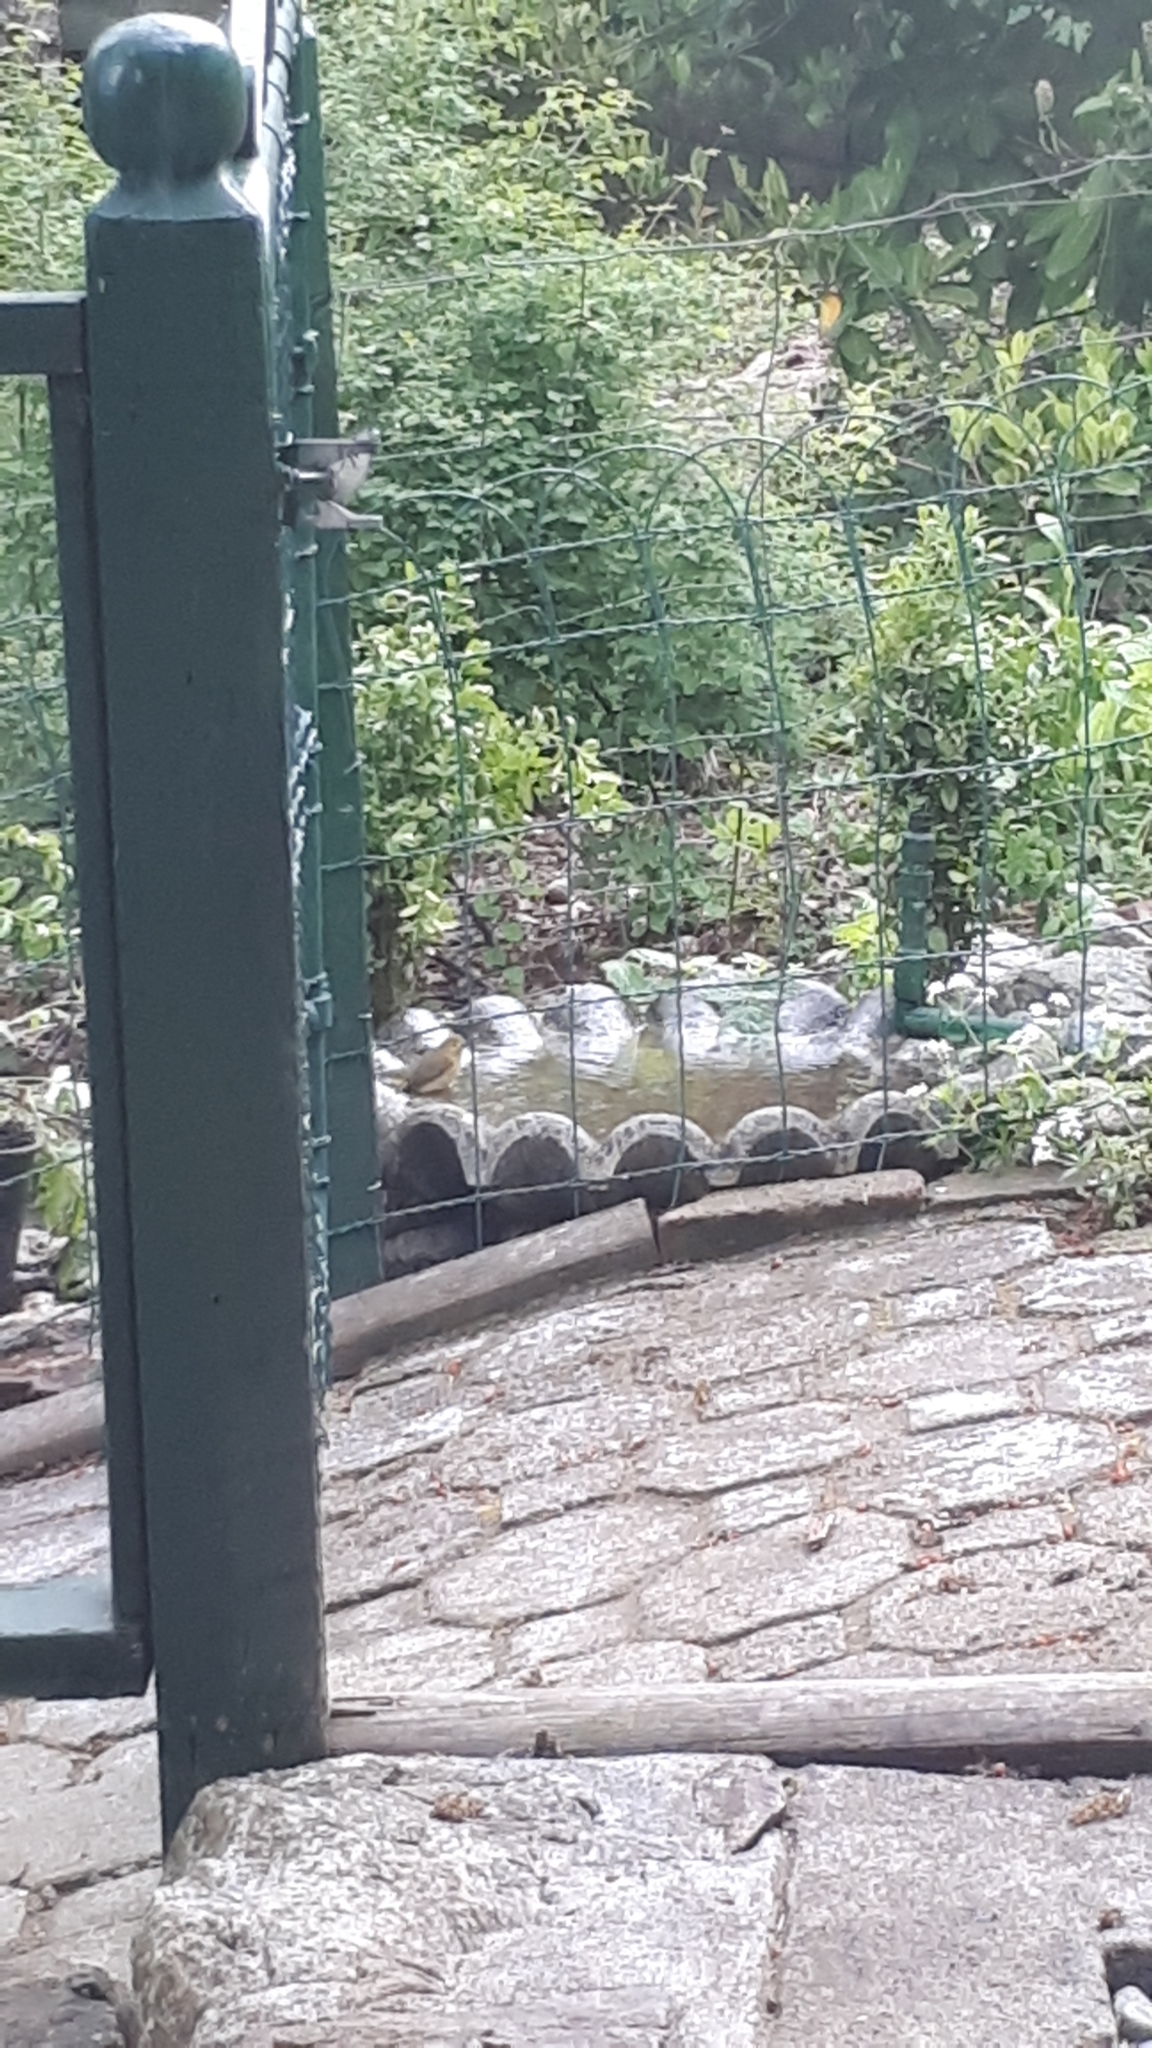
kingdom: Animalia
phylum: Chordata
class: Aves
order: Passeriformes
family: Parulidae
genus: Leiothlypis
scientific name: Leiothlypis celata
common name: Orange-crowned warbler
